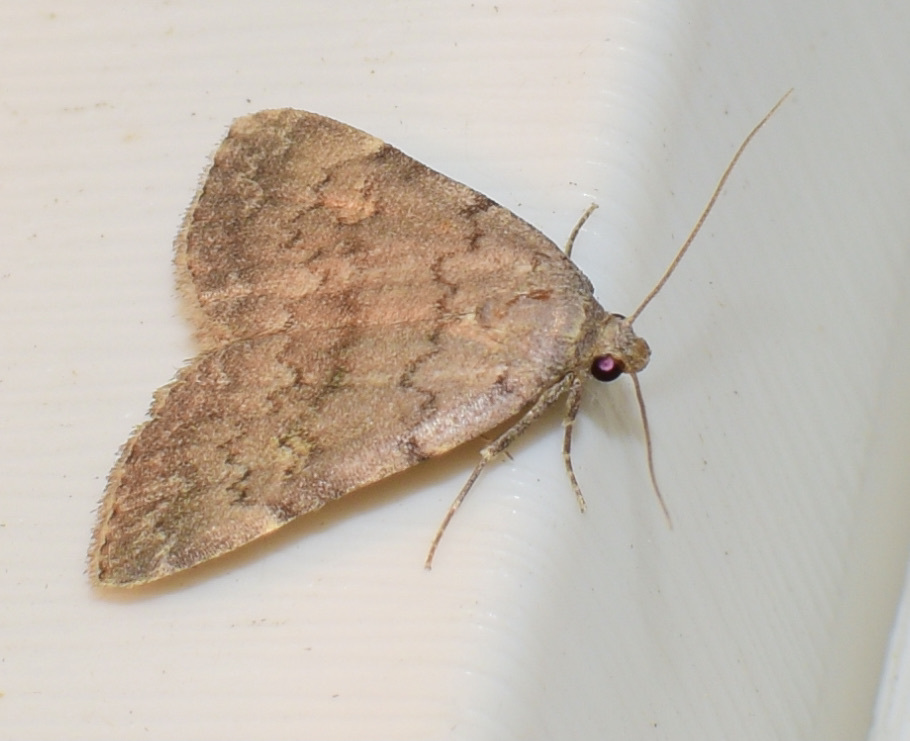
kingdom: Animalia
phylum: Arthropoda
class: Insecta
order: Lepidoptera
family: Erebidae
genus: Idia
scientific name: Idia aemula
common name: Common idia moth
